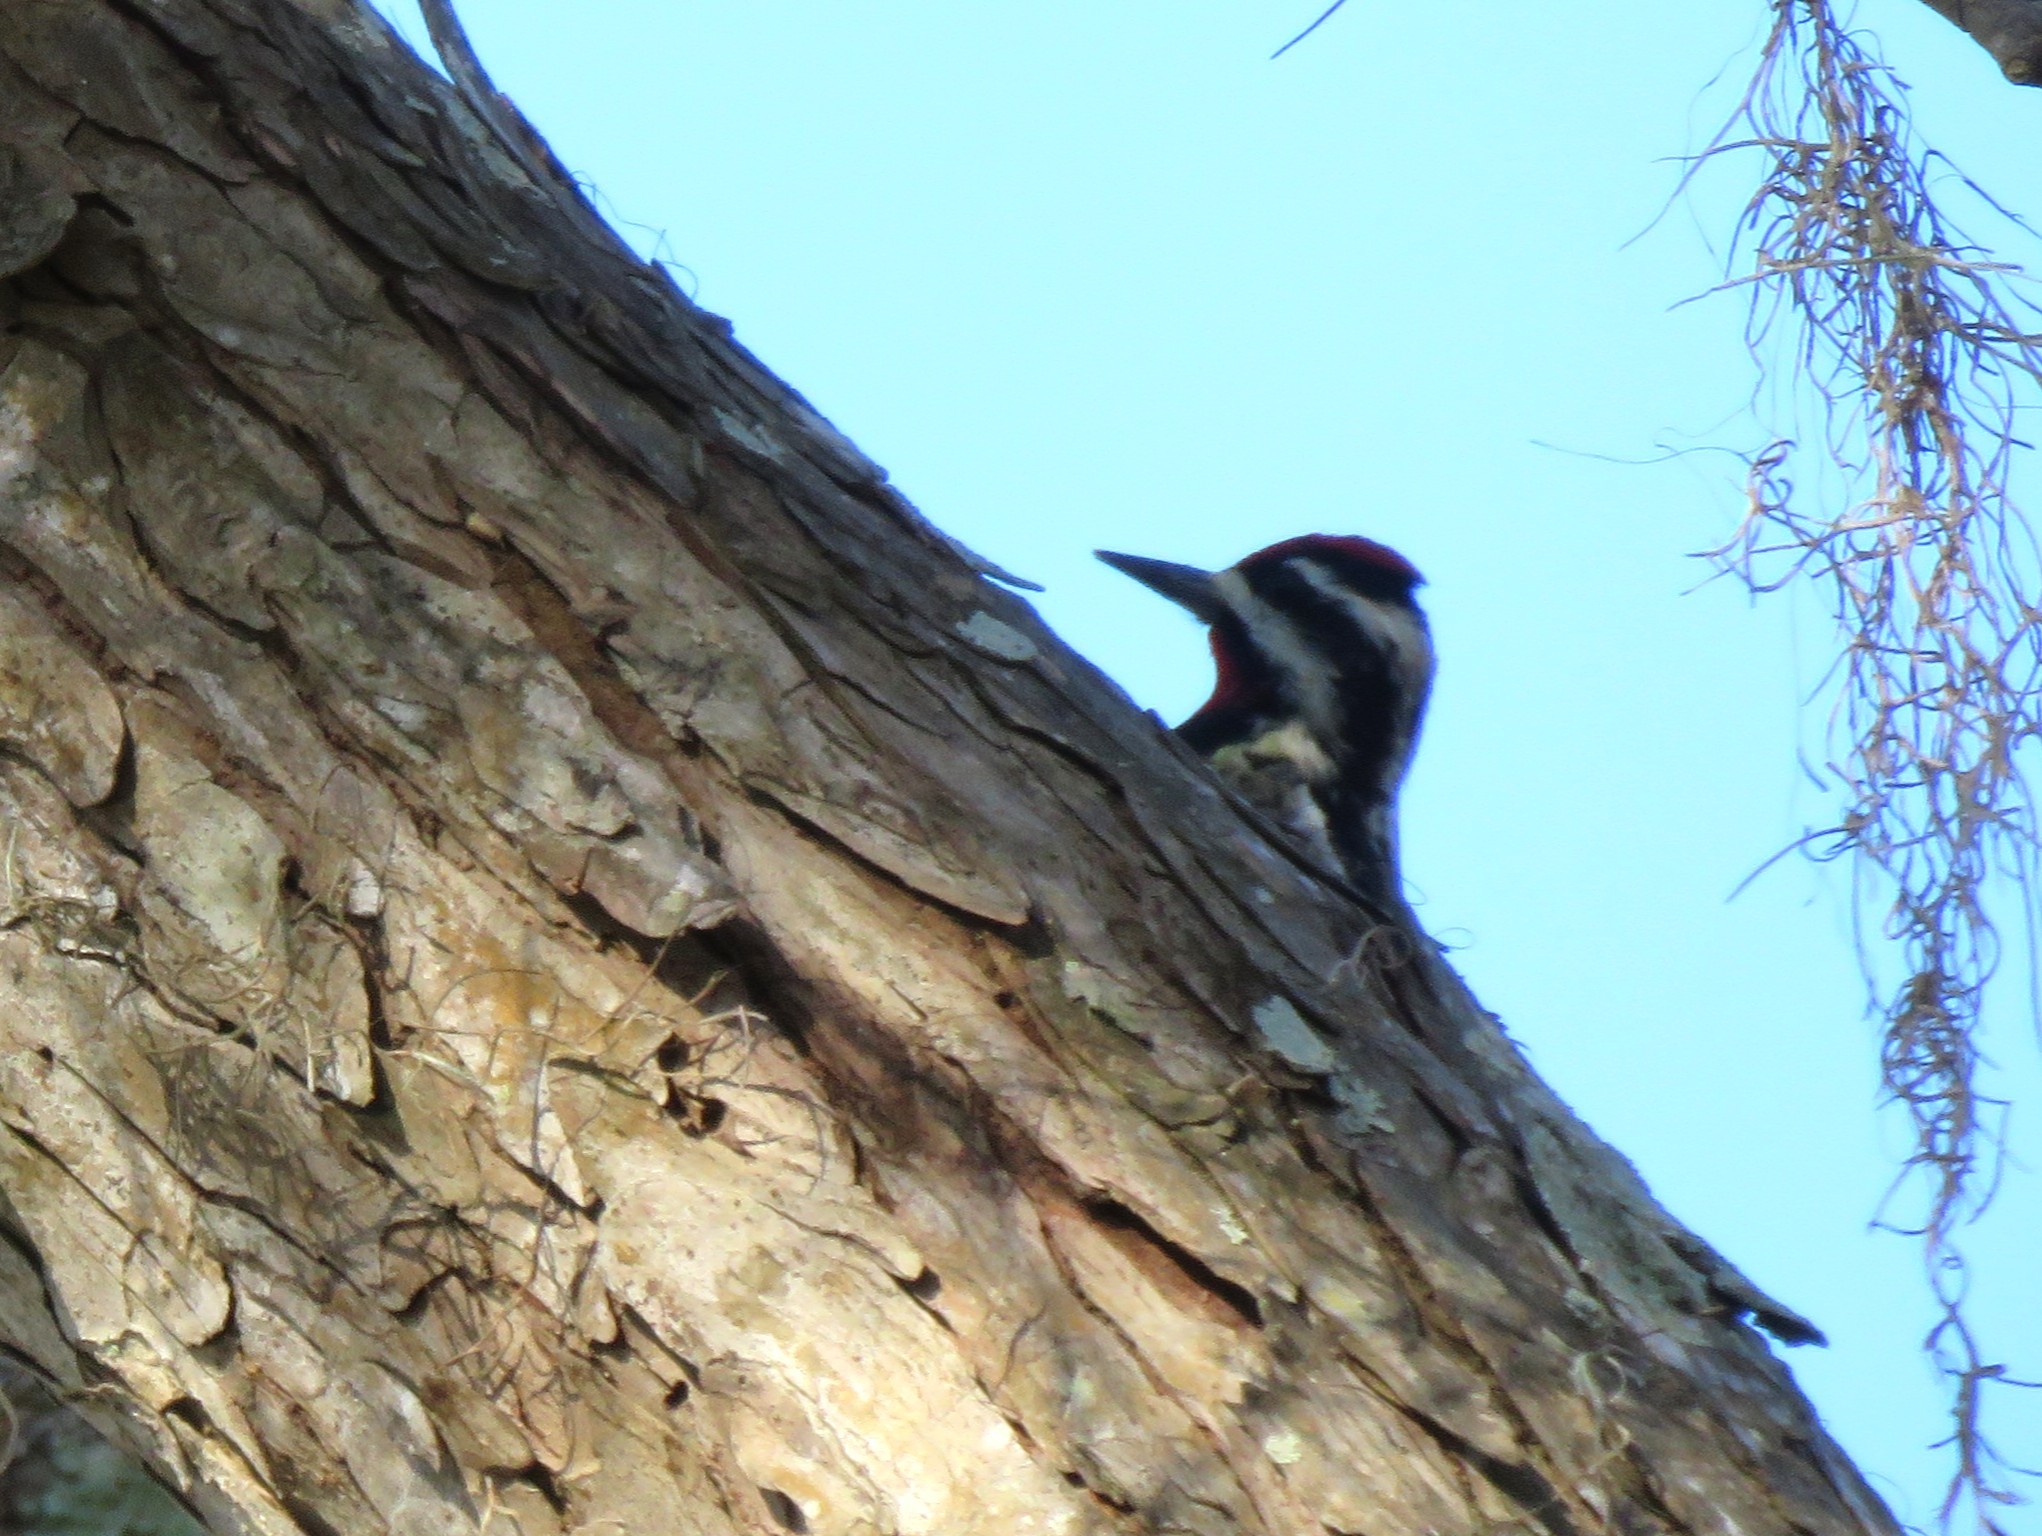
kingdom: Animalia
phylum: Chordata
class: Aves
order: Piciformes
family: Picidae
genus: Sphyrapicus
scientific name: Sphyrapicus varius
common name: Yellow-bellied sapsucker
